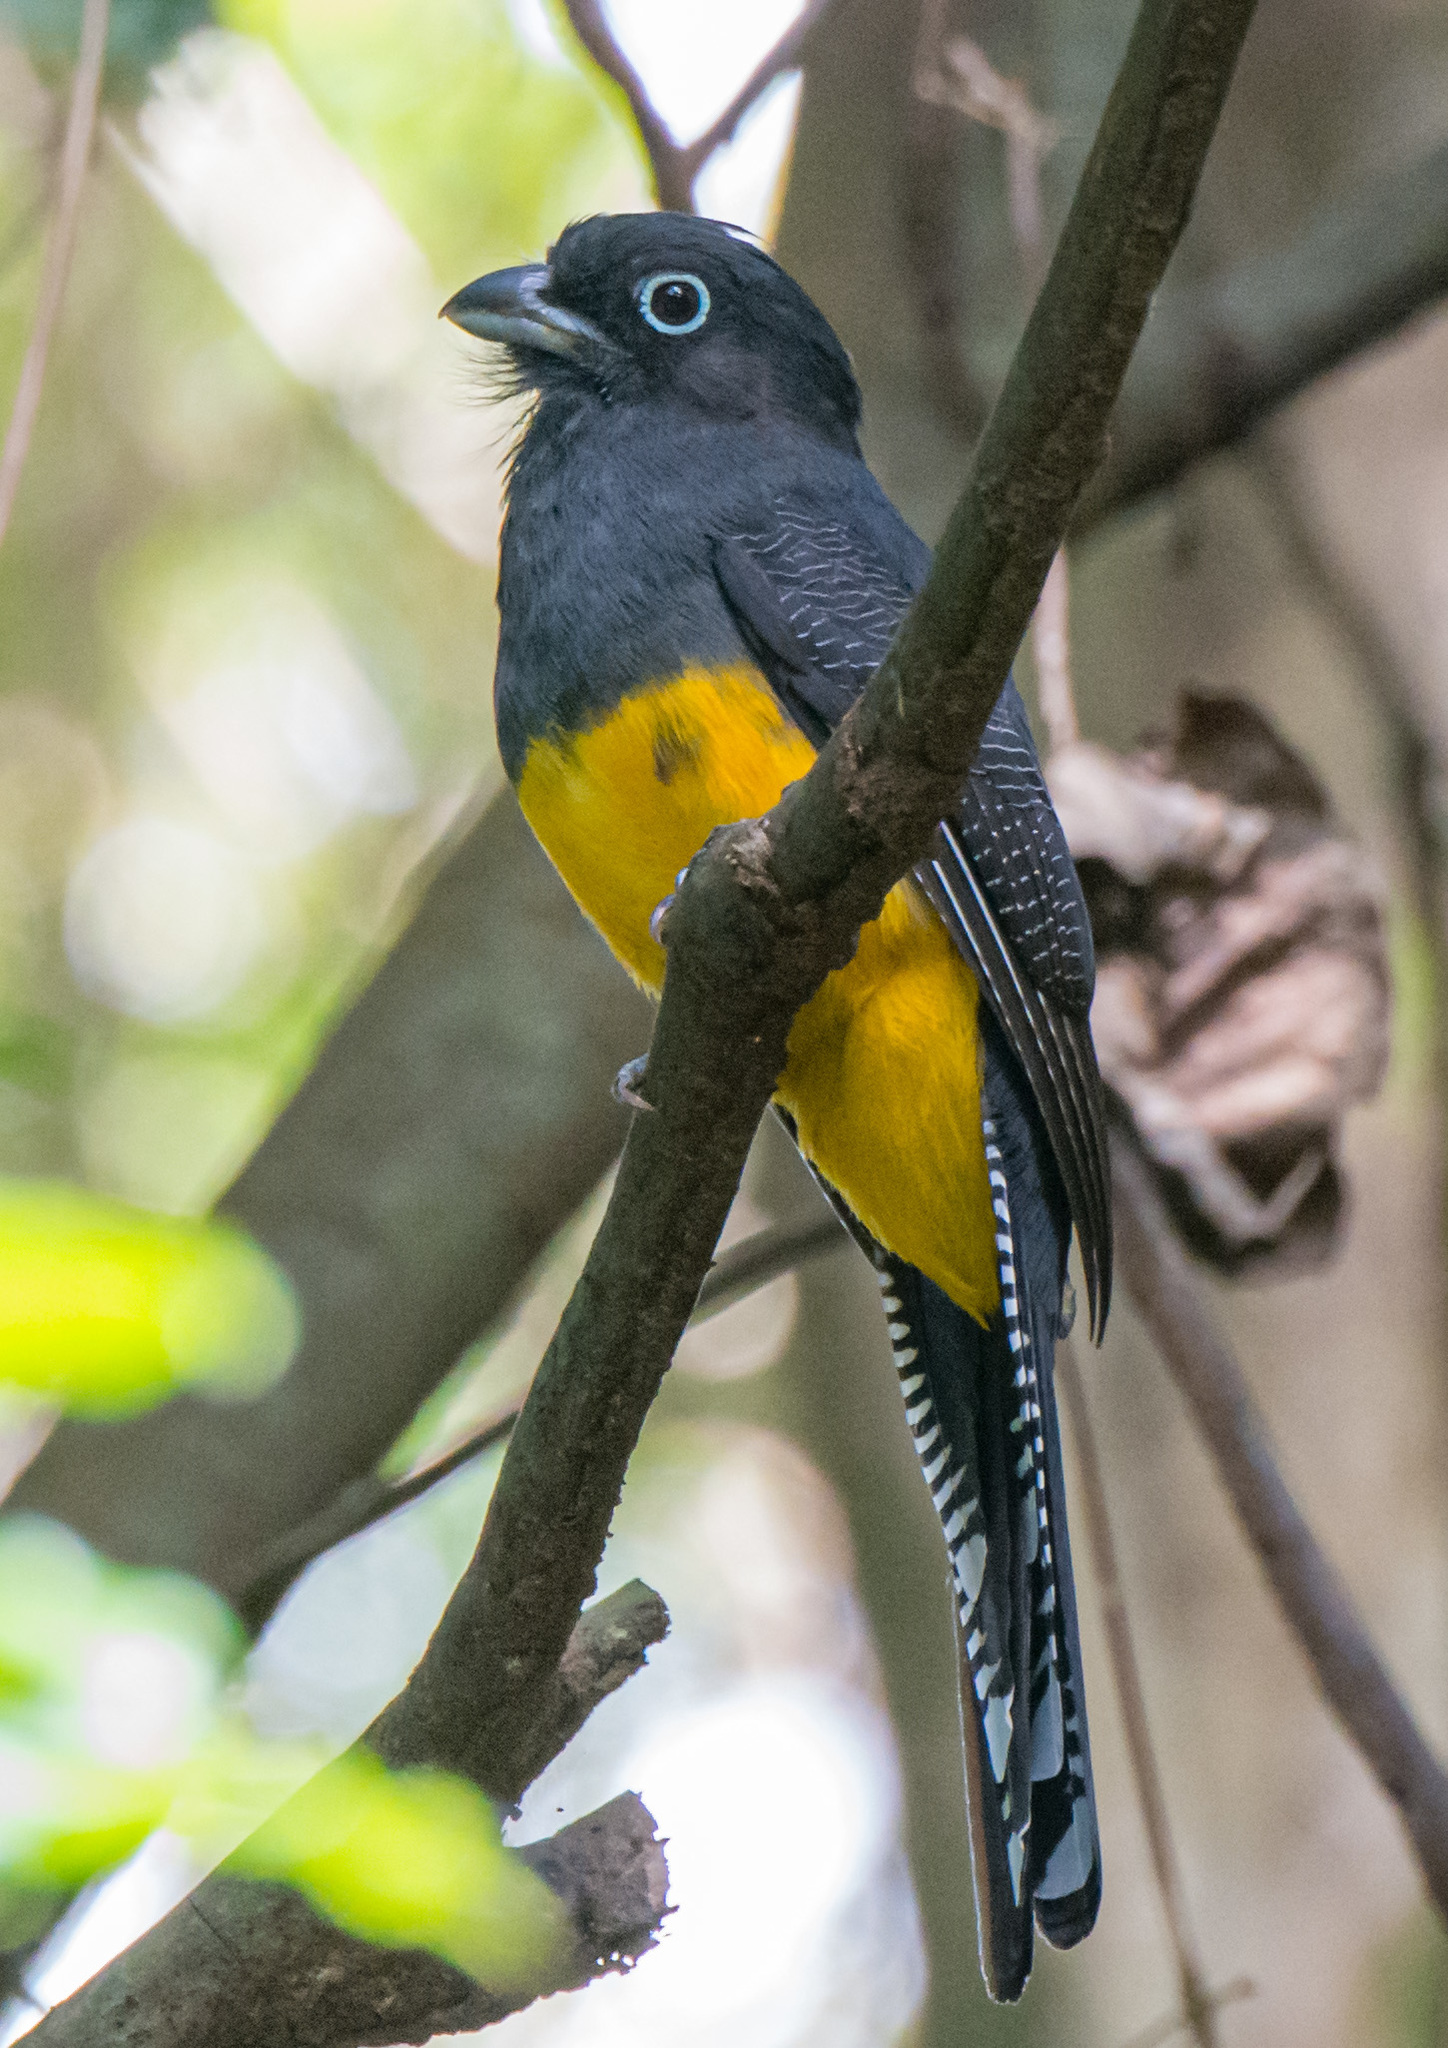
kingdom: Animalia
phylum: Chordata
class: Aves
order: Trogoniformes
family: Trogonidae
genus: Trogon
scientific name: Trogon viridis
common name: Green-backed trogon
